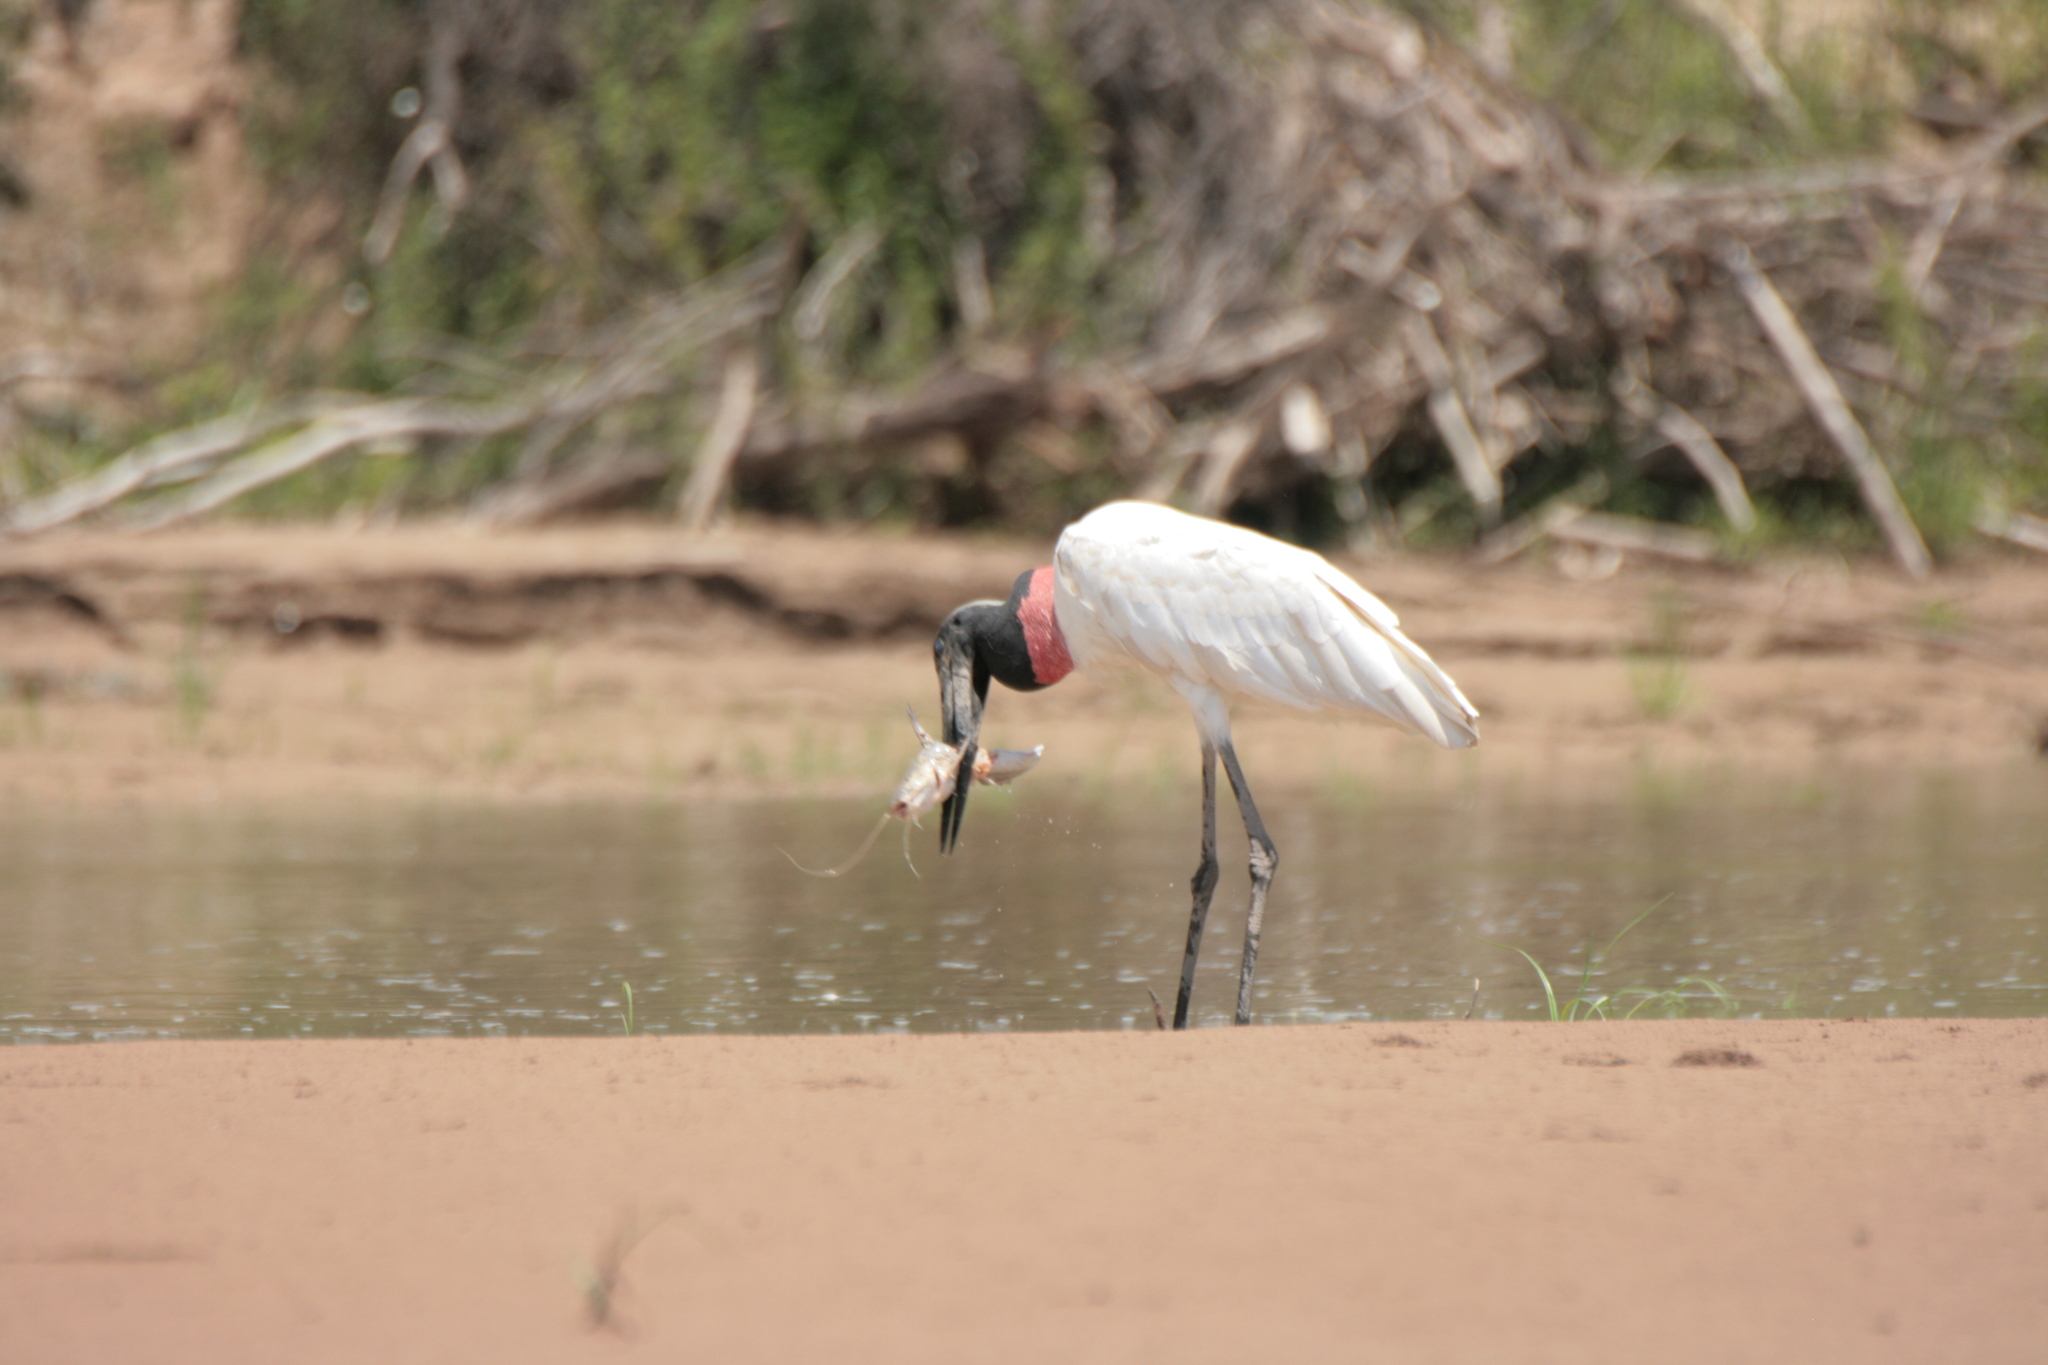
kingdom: Animalia
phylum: Chordata
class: Aves
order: Ciconiiformes
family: Ciconiidae
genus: Jabiru
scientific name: Jabiru mycteria
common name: Jabiru
